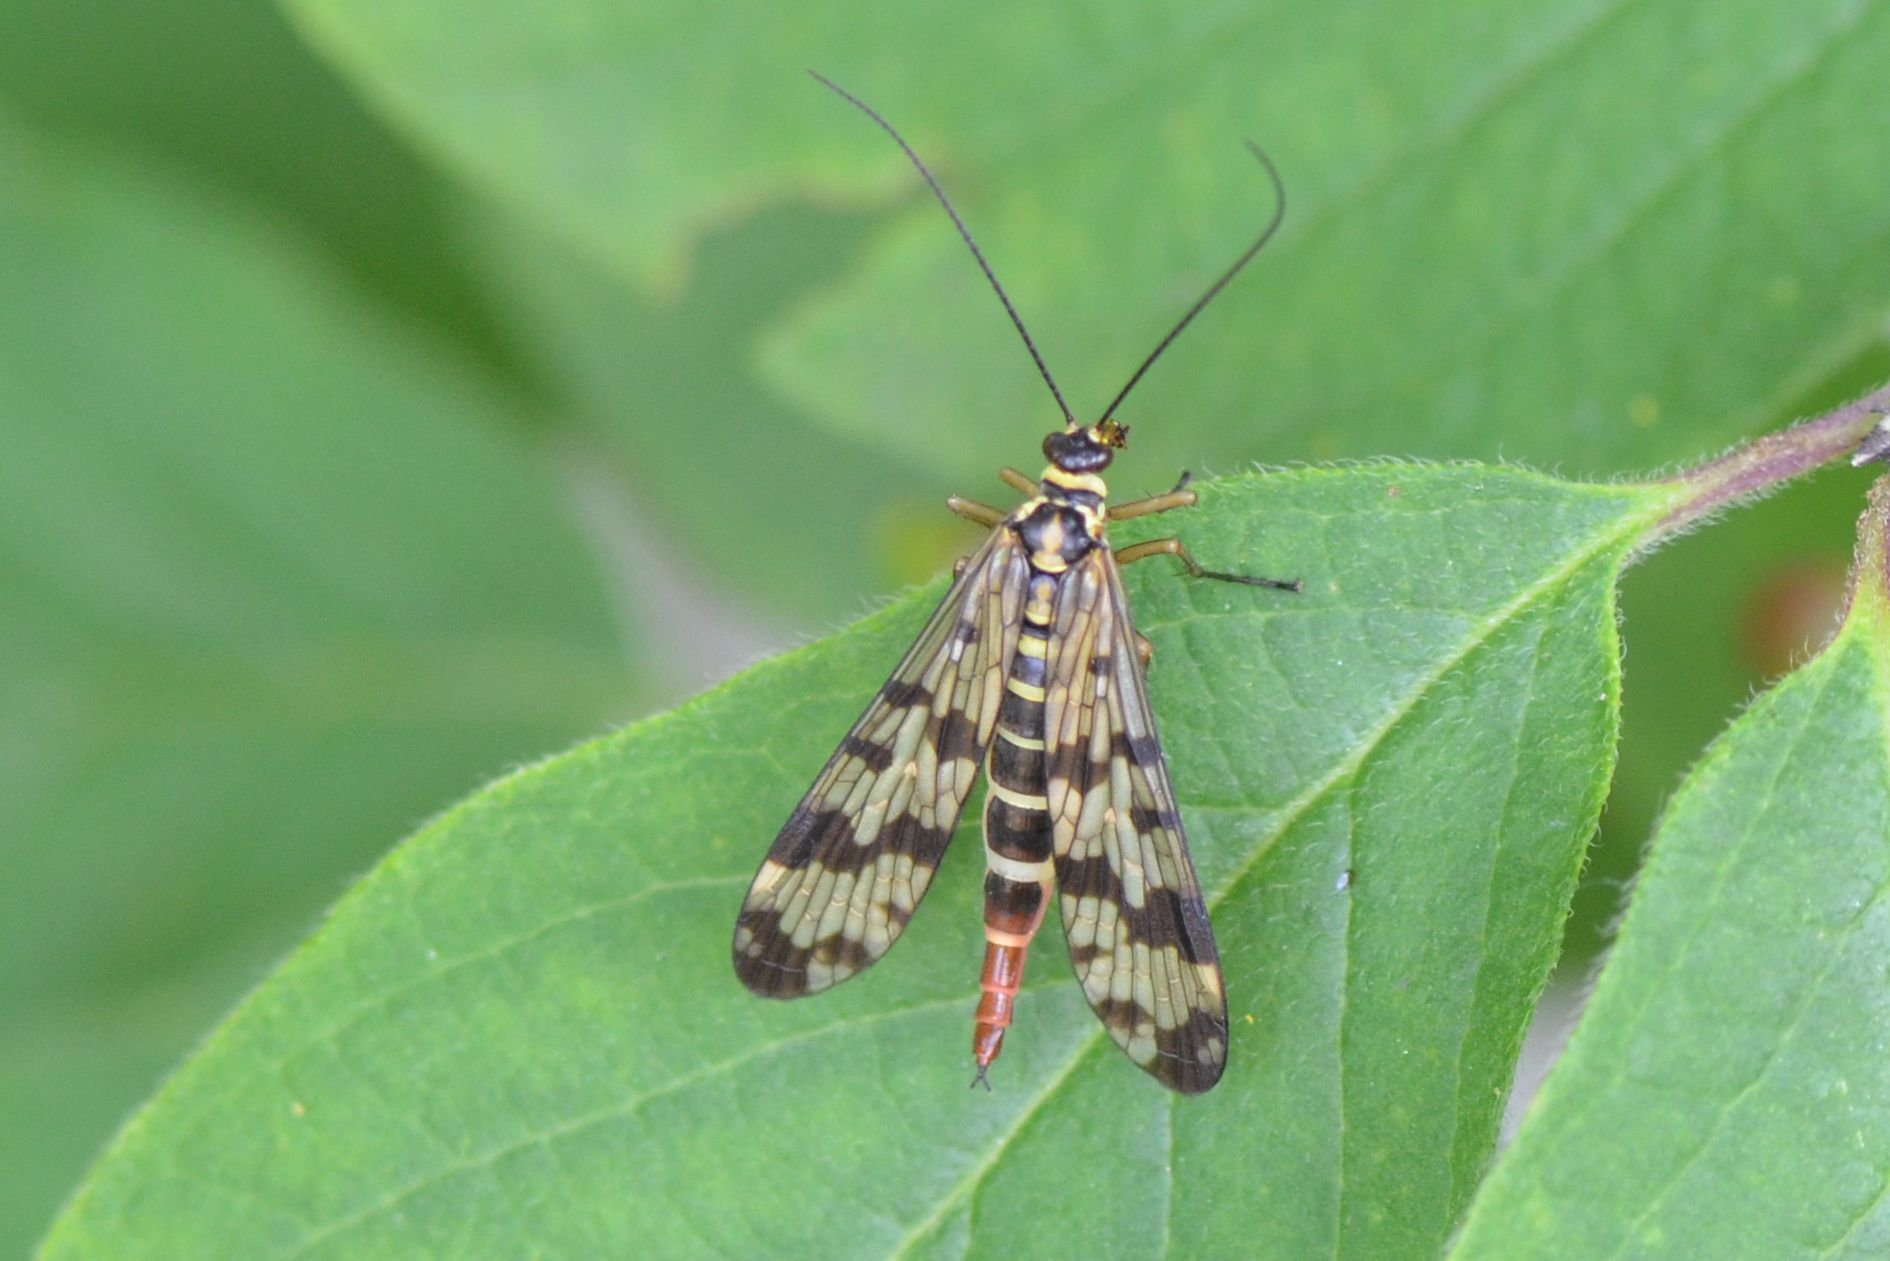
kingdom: Animalia
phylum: Arthropoda
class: Insecta
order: Mecoptera
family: Panorpidae
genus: Panorpa
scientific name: Panorpa communis
